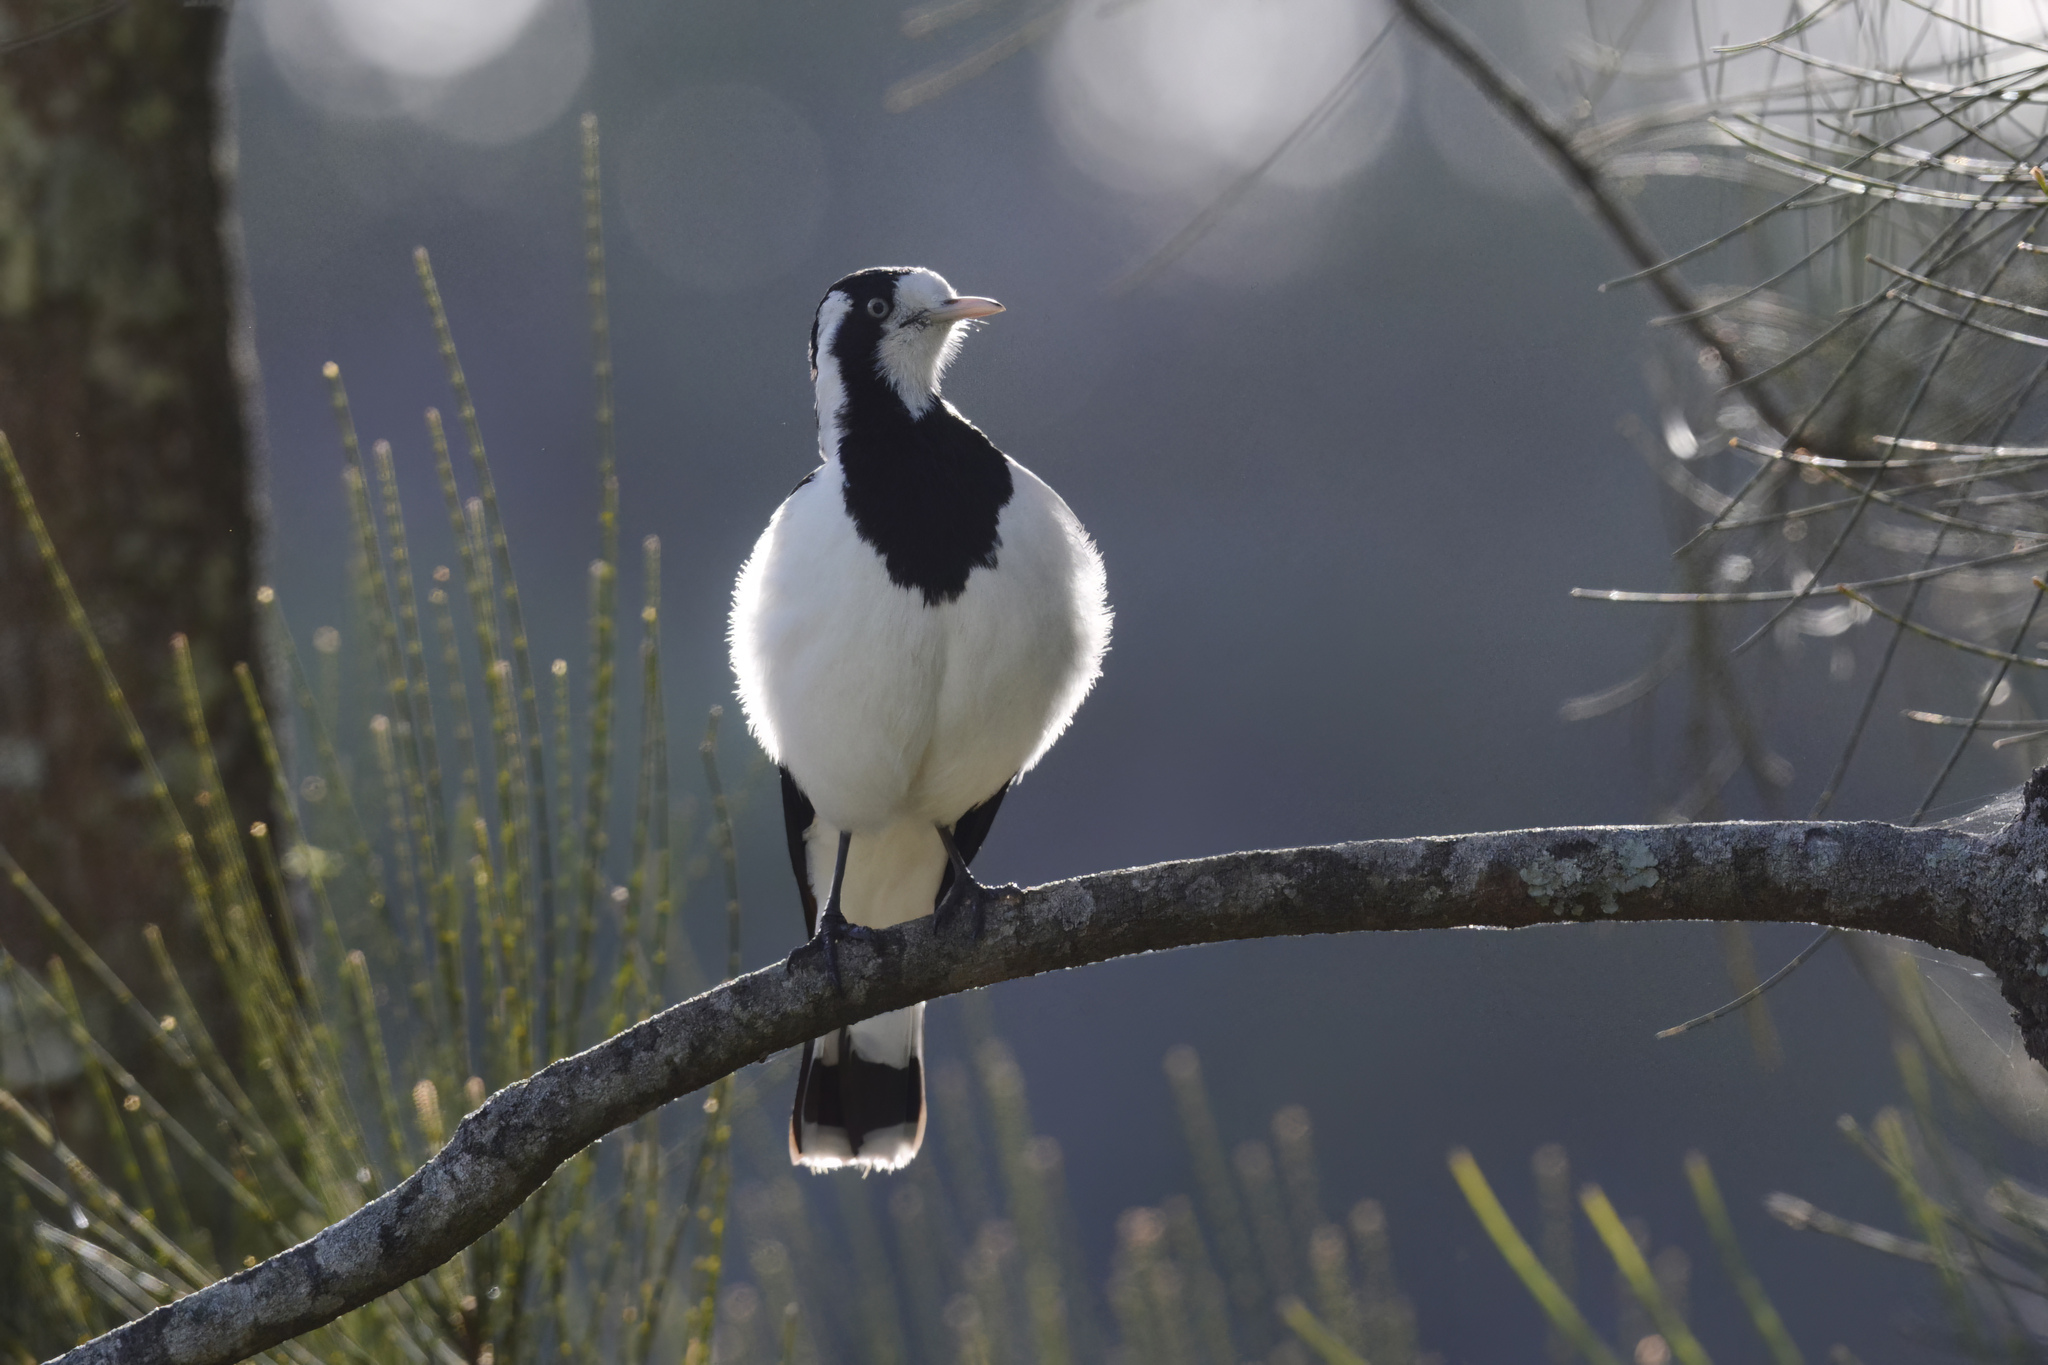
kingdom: Animalia
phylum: Chordata
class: Aves
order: Passeriformes
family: Monarchidae
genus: Grallina
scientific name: Grallina cyanoleuca
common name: Magpie-lark
